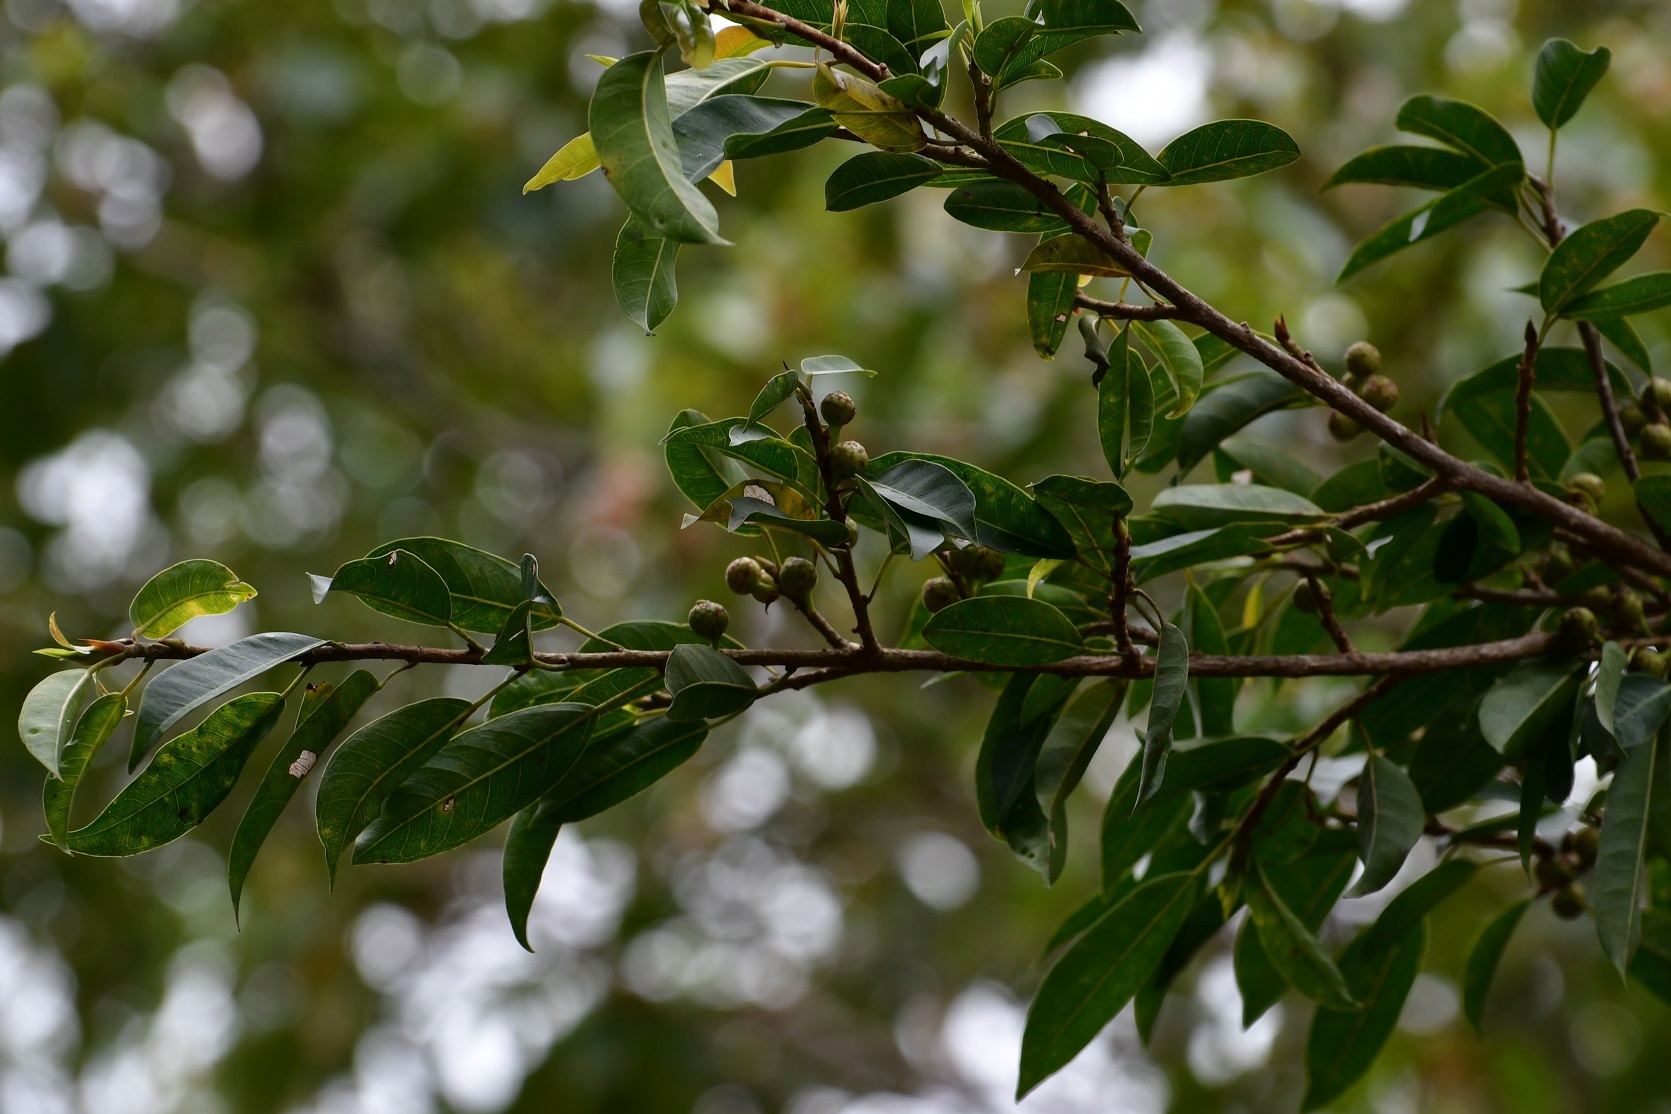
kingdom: Plantae
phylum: Tracheophyta
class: Magnoliopsida
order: Rosales
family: Moraceae
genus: Ficus
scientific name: Ficus pertusa
